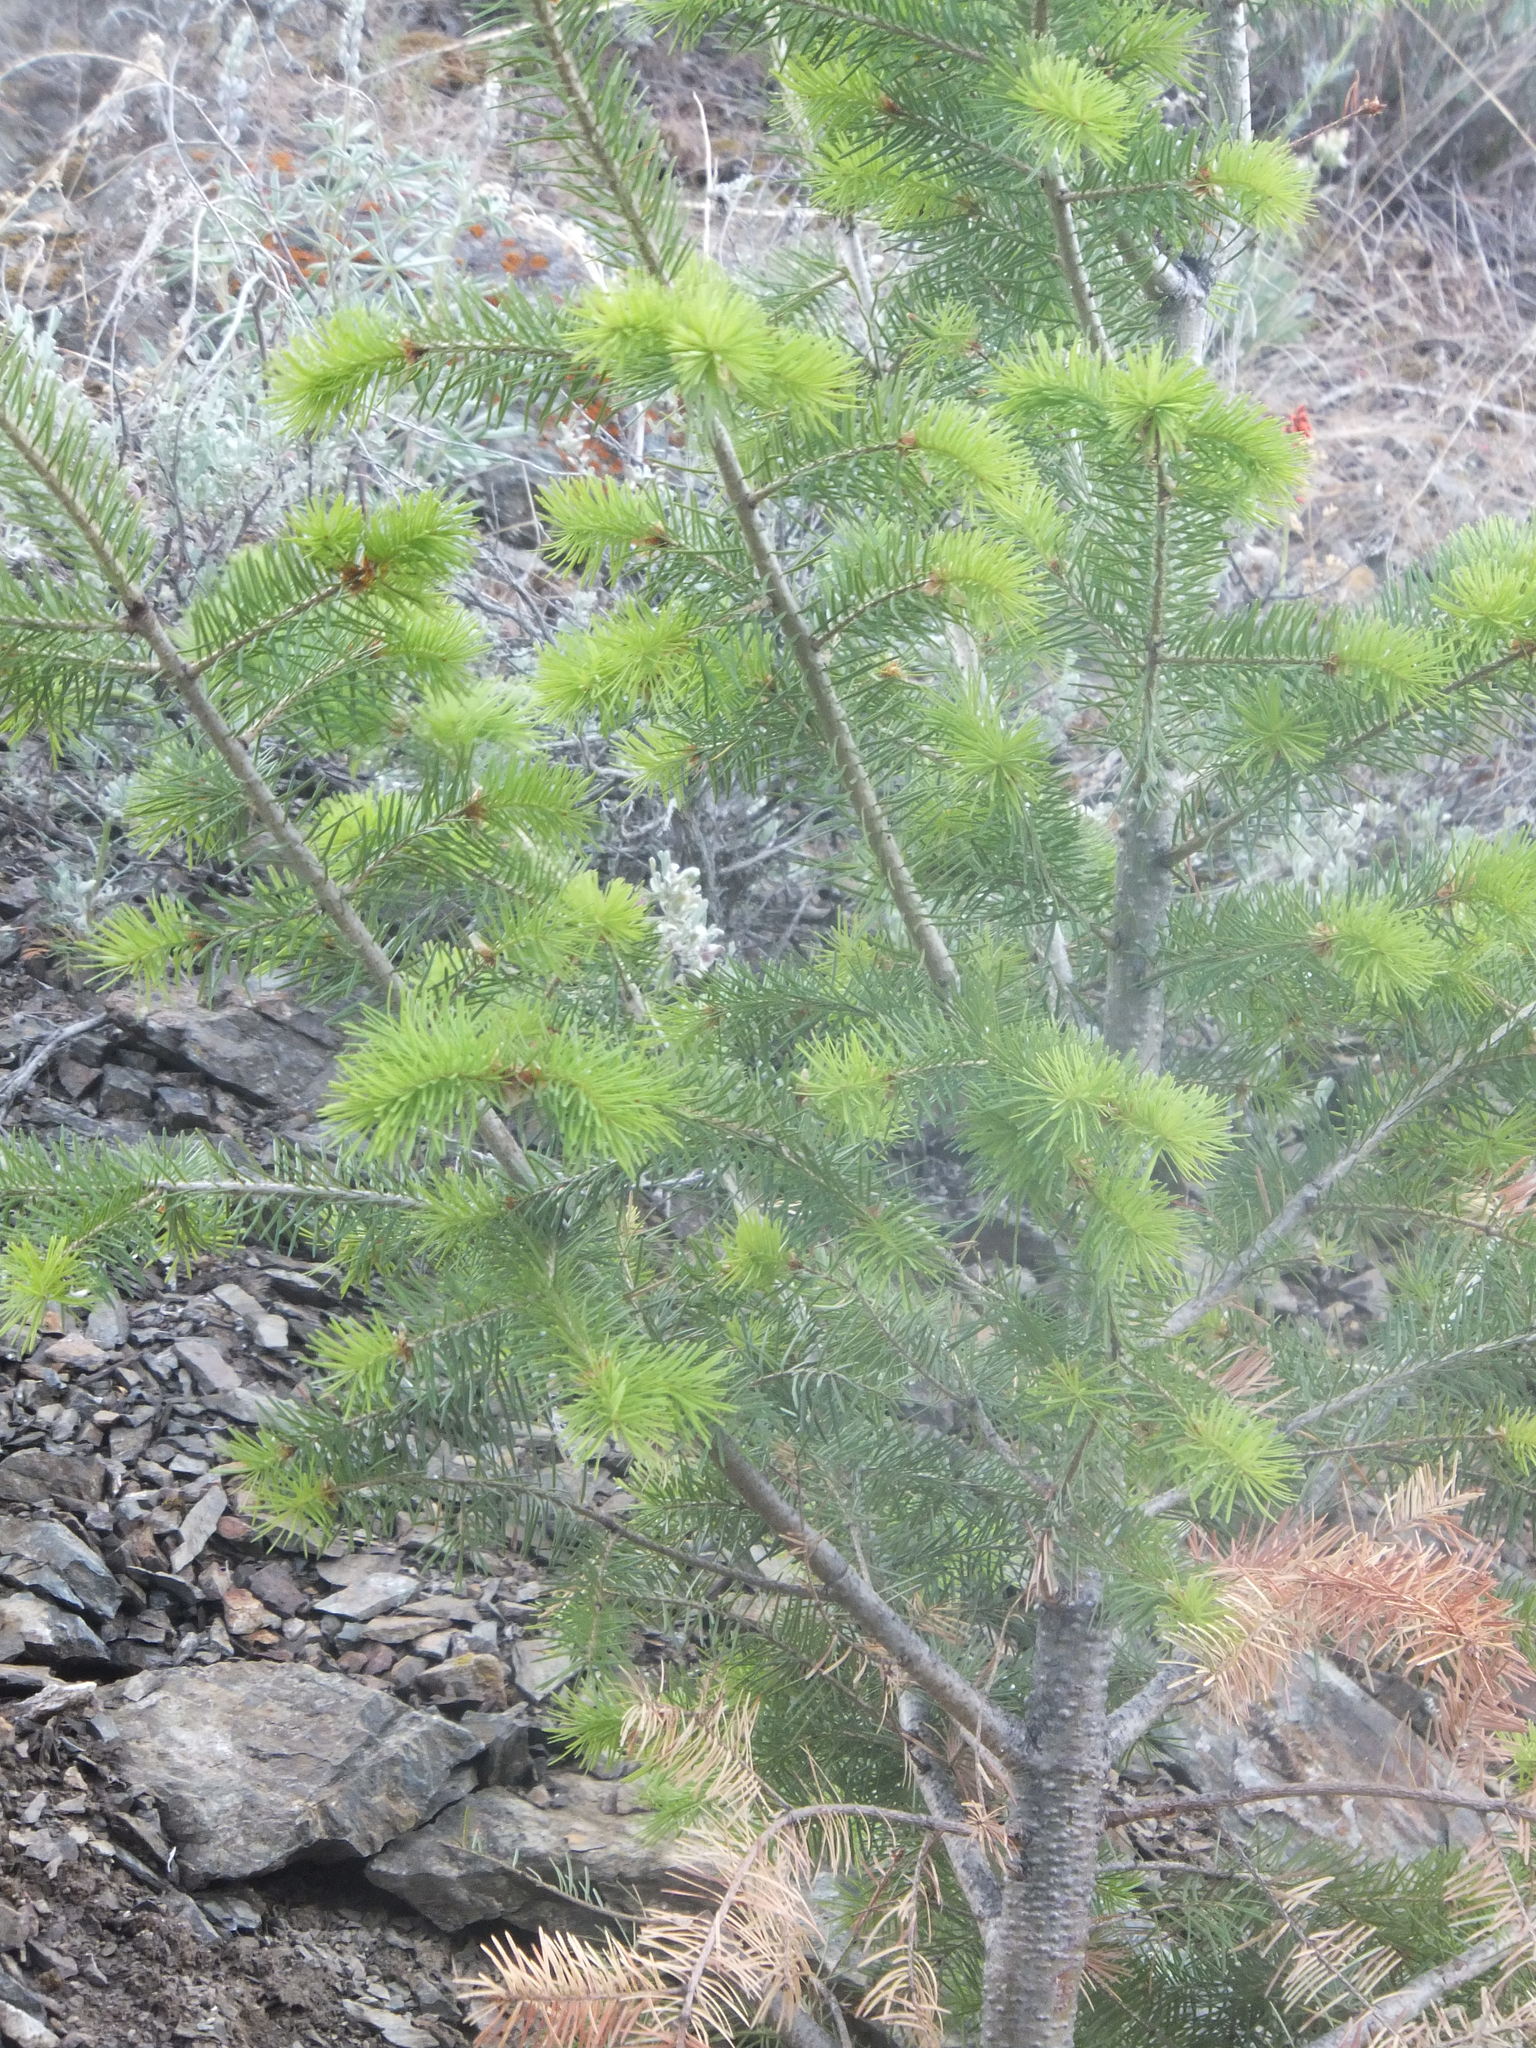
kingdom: Plantae
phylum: Tracheophyta
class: Pinopsida
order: Pinales
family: Pinaceae
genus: Pseudotsuga
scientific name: Pseudotsuga menziesii
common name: Douglas fir
